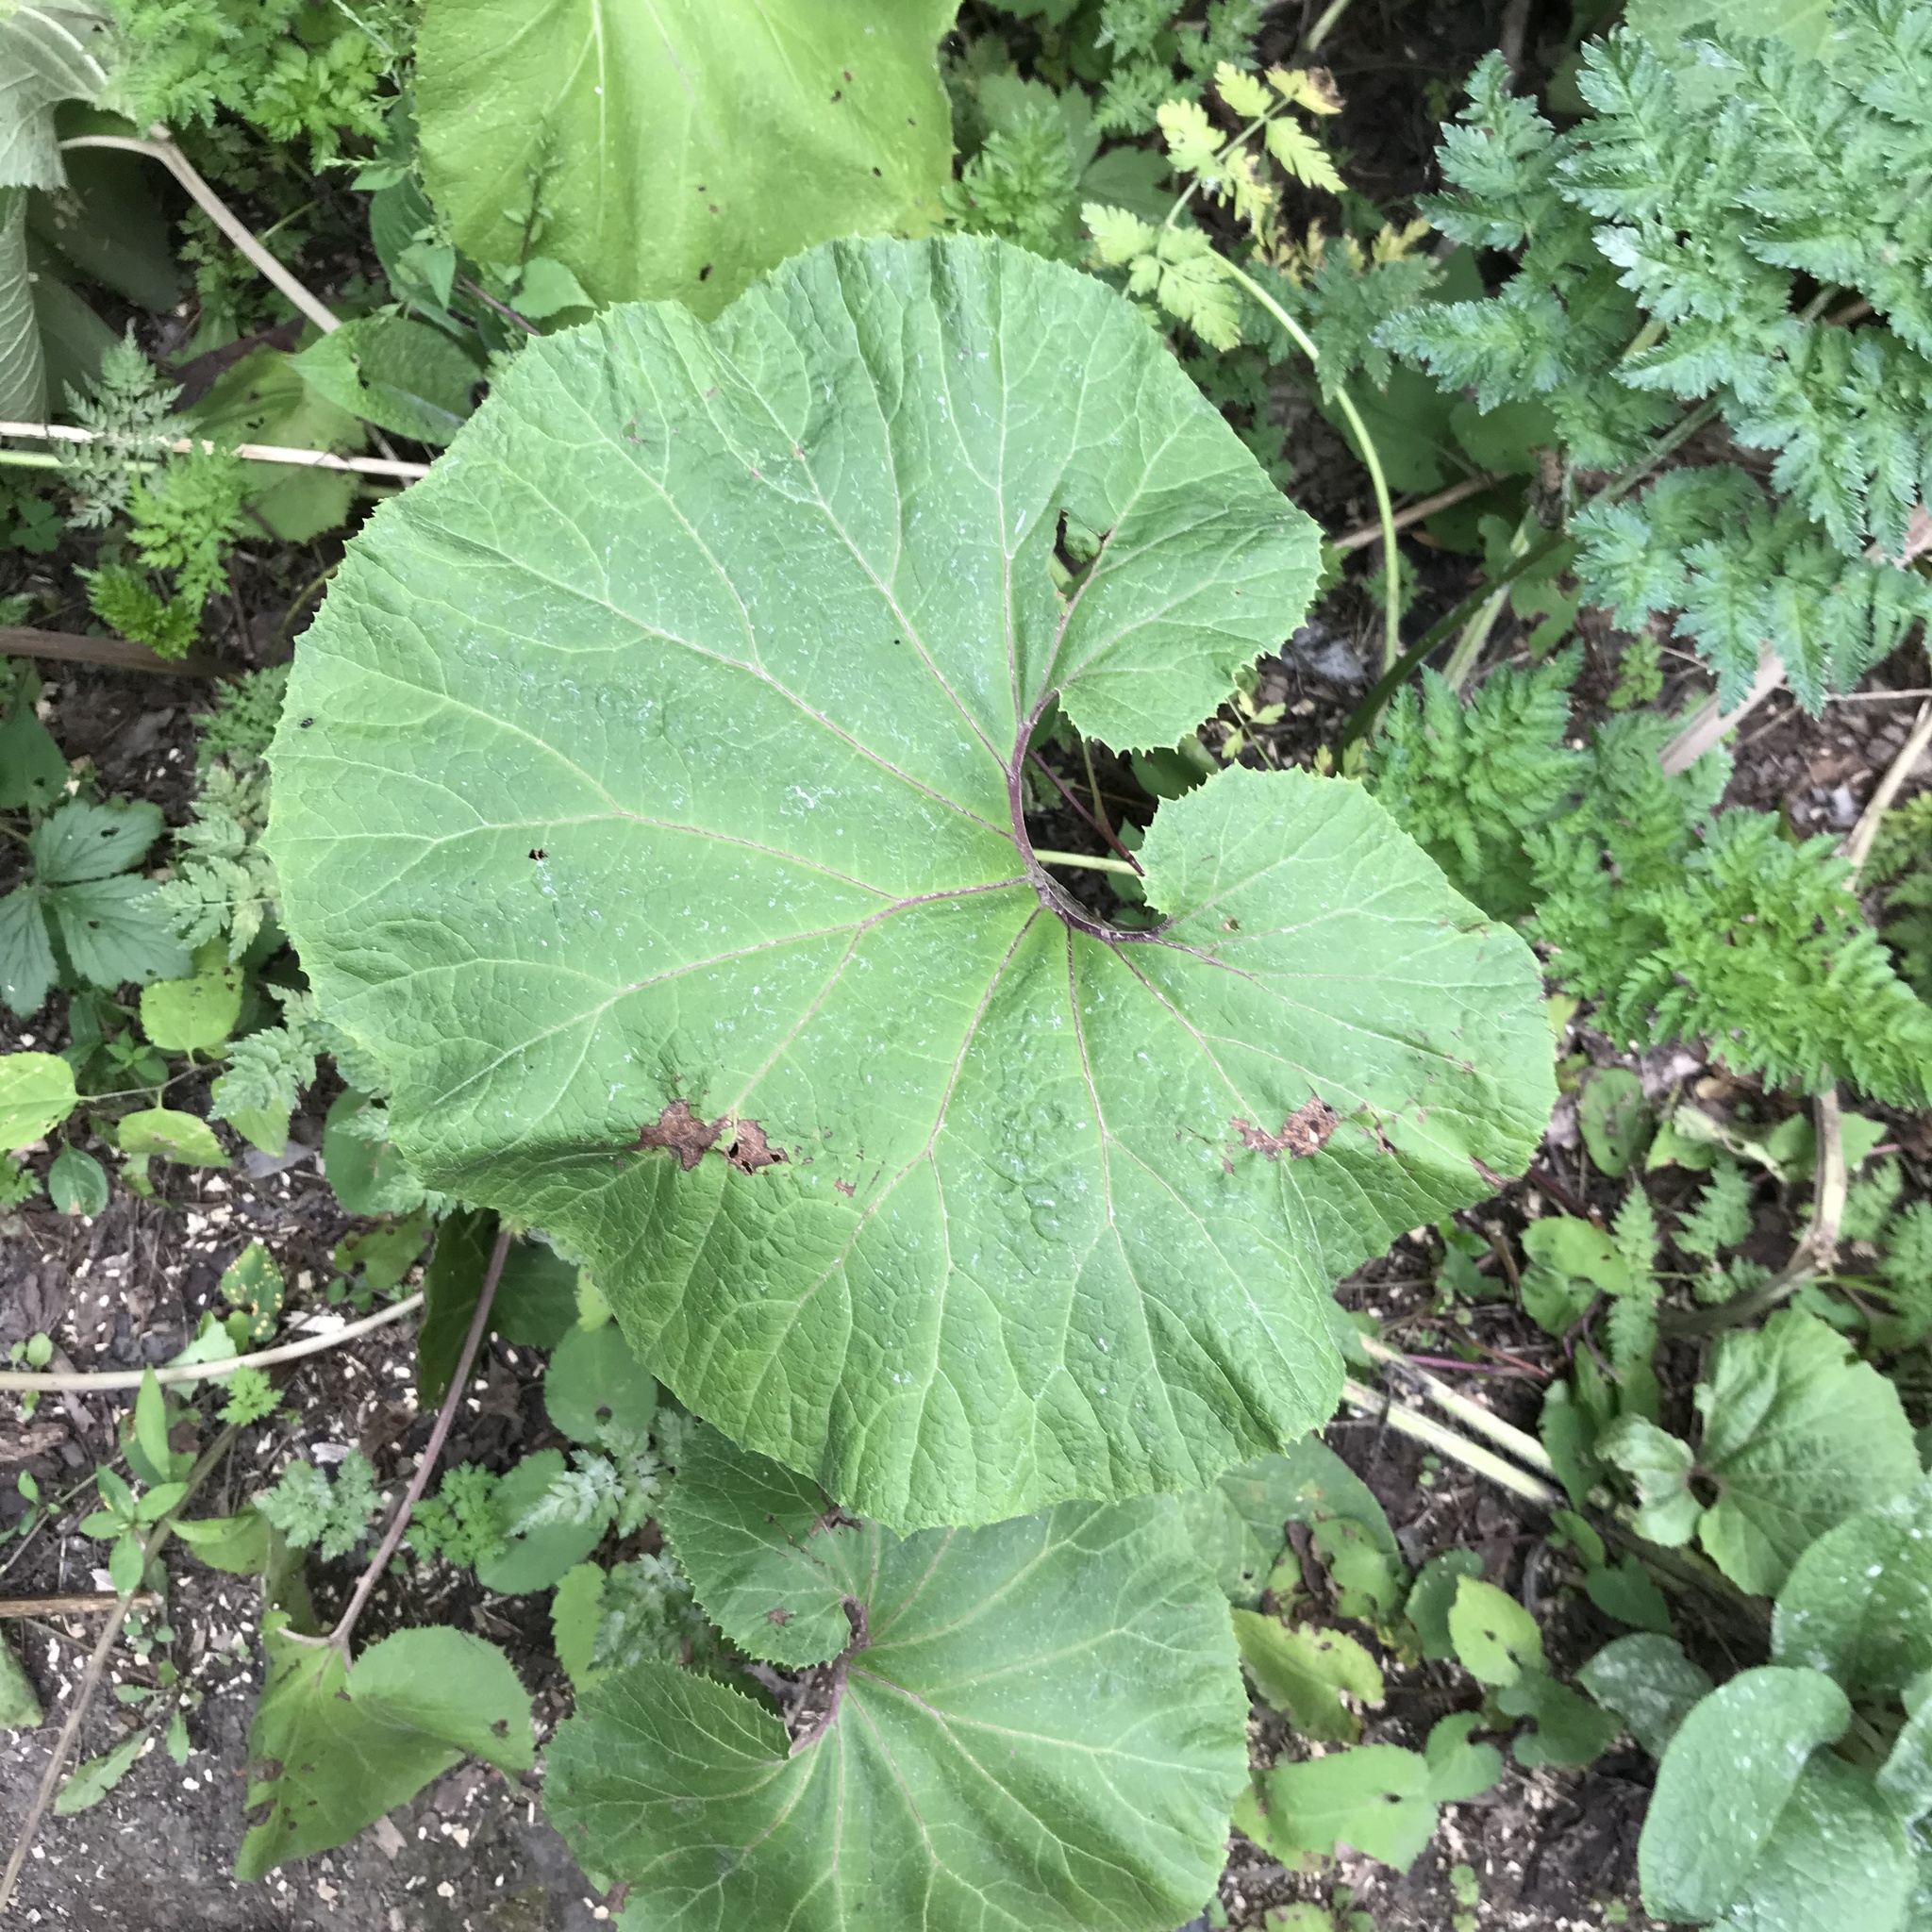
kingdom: Plantae
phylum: Tracheophyta
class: Magnoliopsida
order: Asterales
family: Asteraceae
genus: Petasites
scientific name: Petasites japonicus
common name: Giant butterbur
